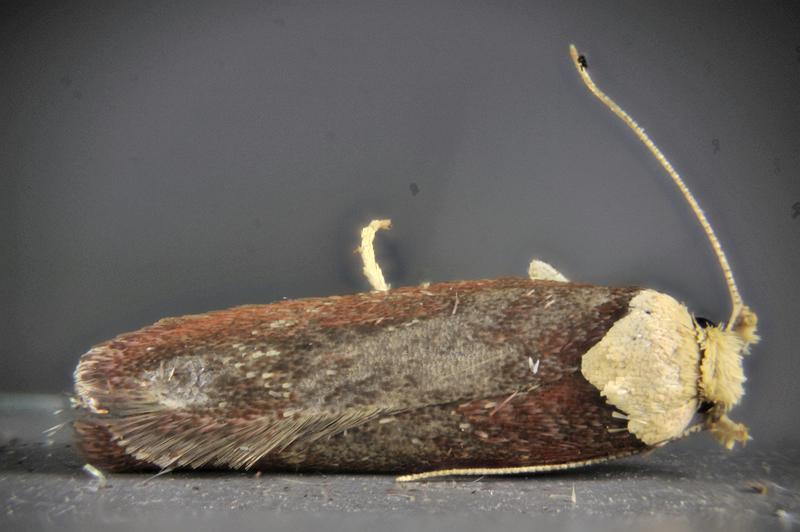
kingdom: Animalia
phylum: Arthropoda
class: Insecta
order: Lepidoptera
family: Depressariidae
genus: Depressaria
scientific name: Depressaria depressana
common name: Lost flat-body
